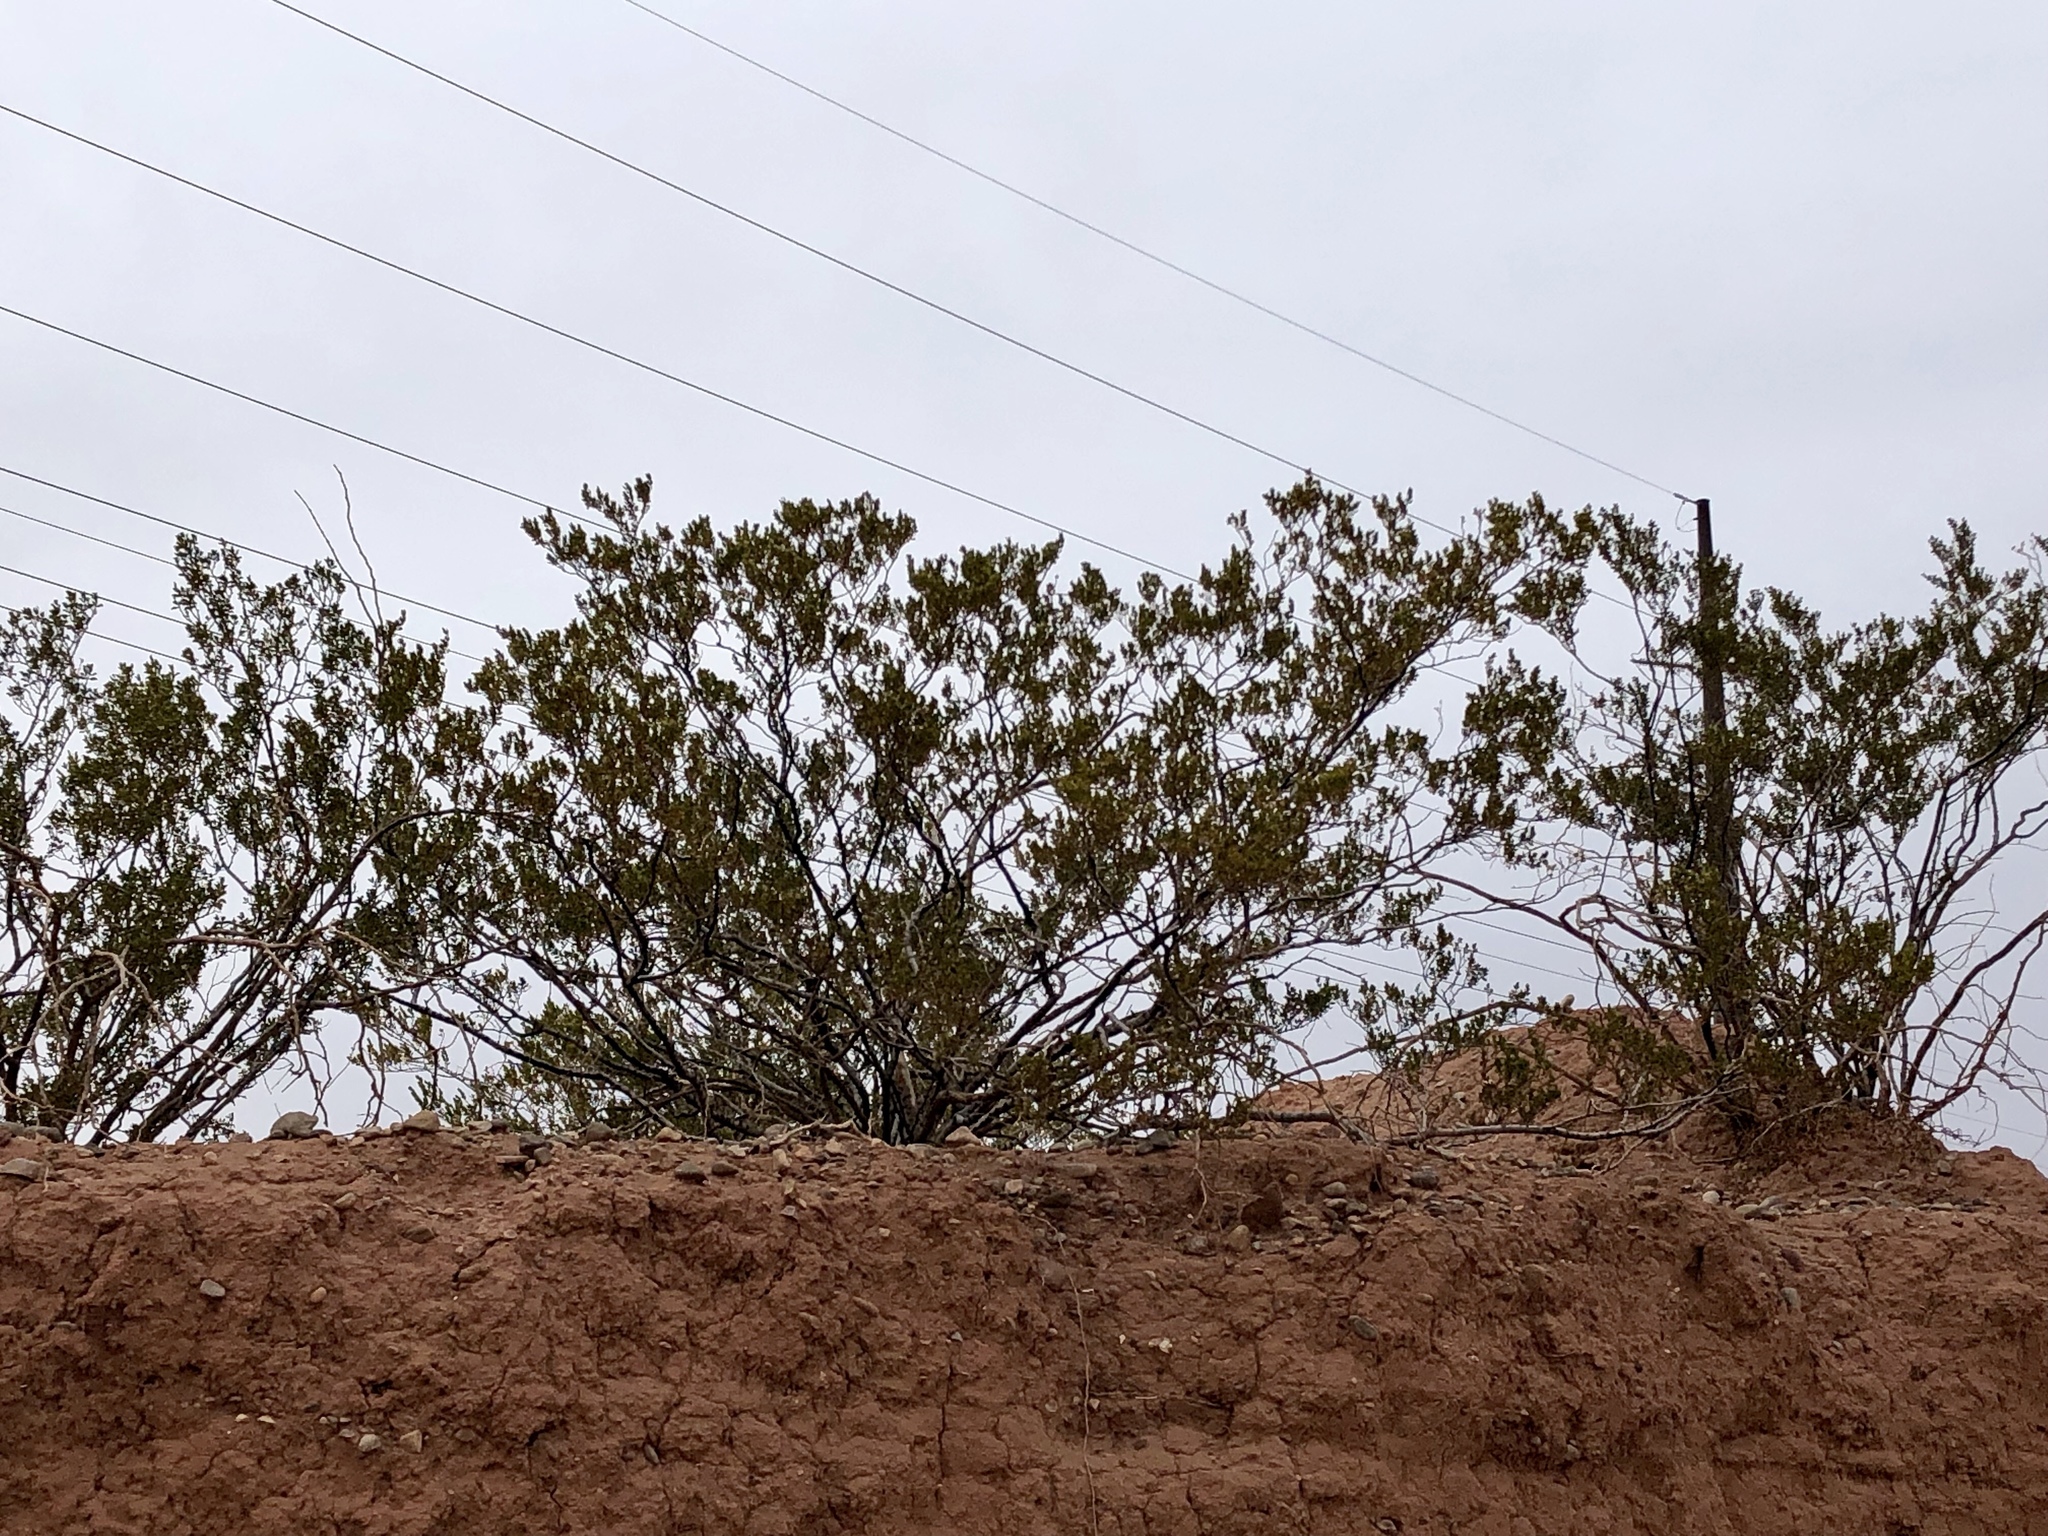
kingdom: Plantae
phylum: Tracheophyta
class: Magnoliopsida
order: Zygophyllales
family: Zygophyllaceae
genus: Larrea
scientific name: Larrea tridentata
